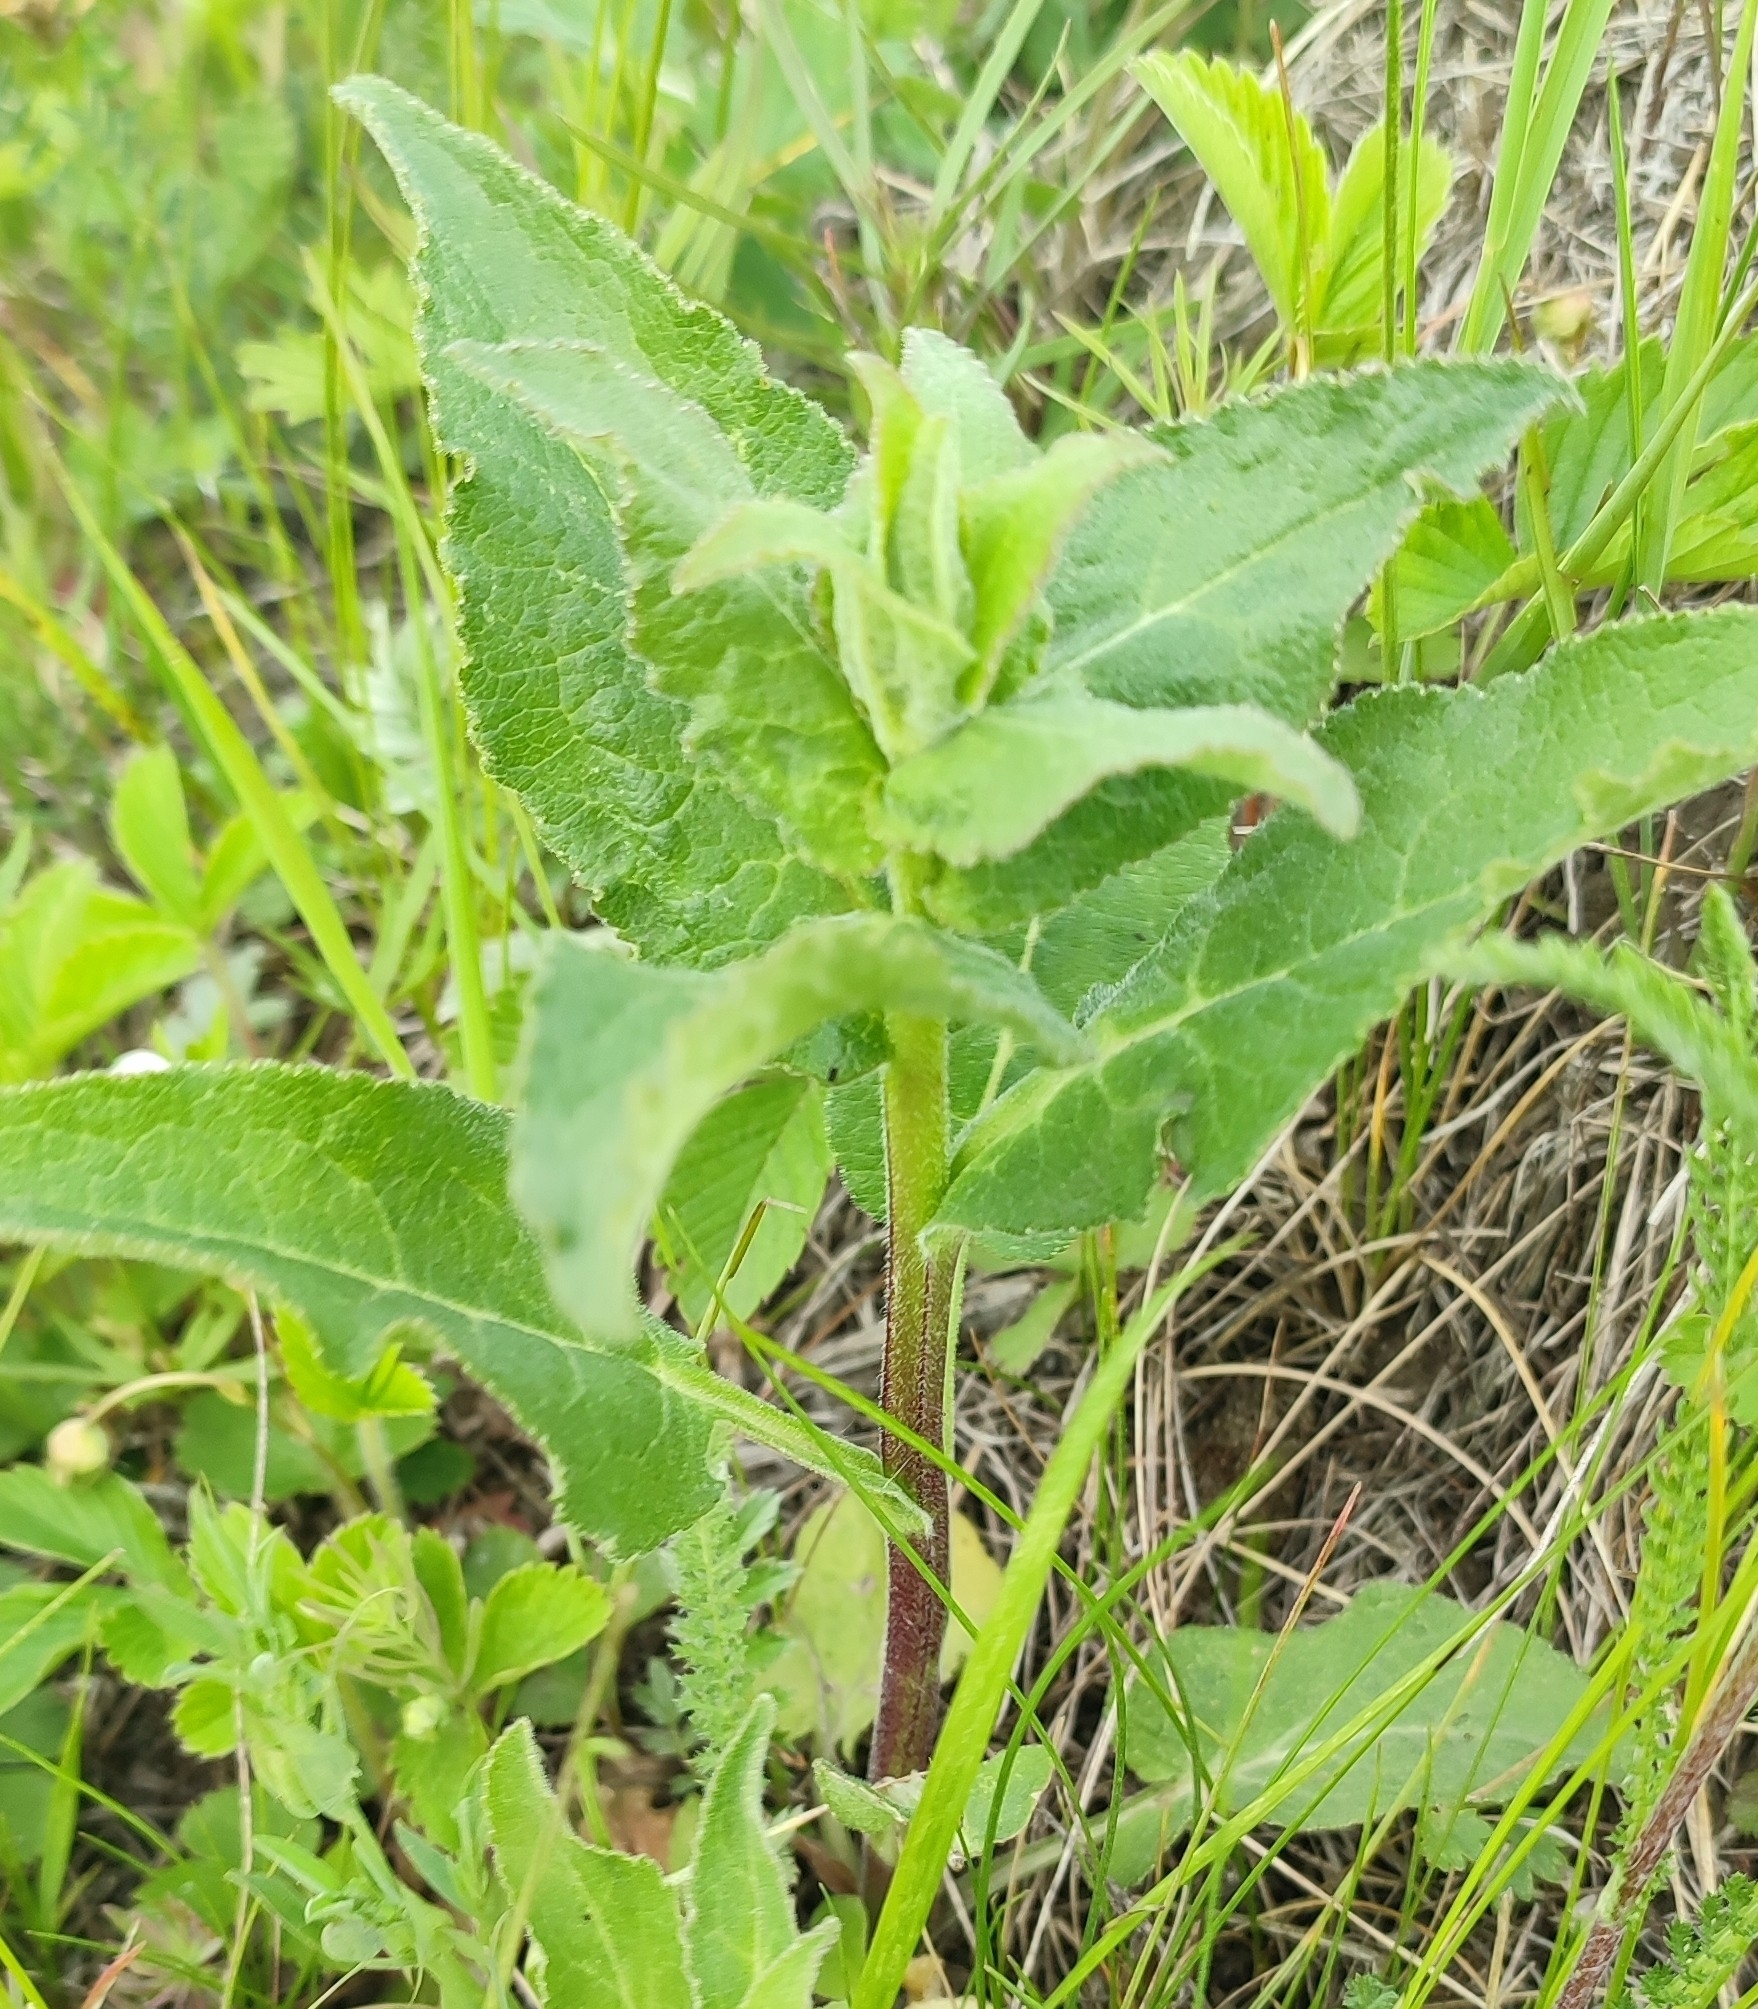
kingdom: Plantae
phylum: Tracheophyta
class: Magnoliopsida
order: Asterales
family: Campanulaceae
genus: Campanula
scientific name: Campanula glomerata
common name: Clustered bellflower
